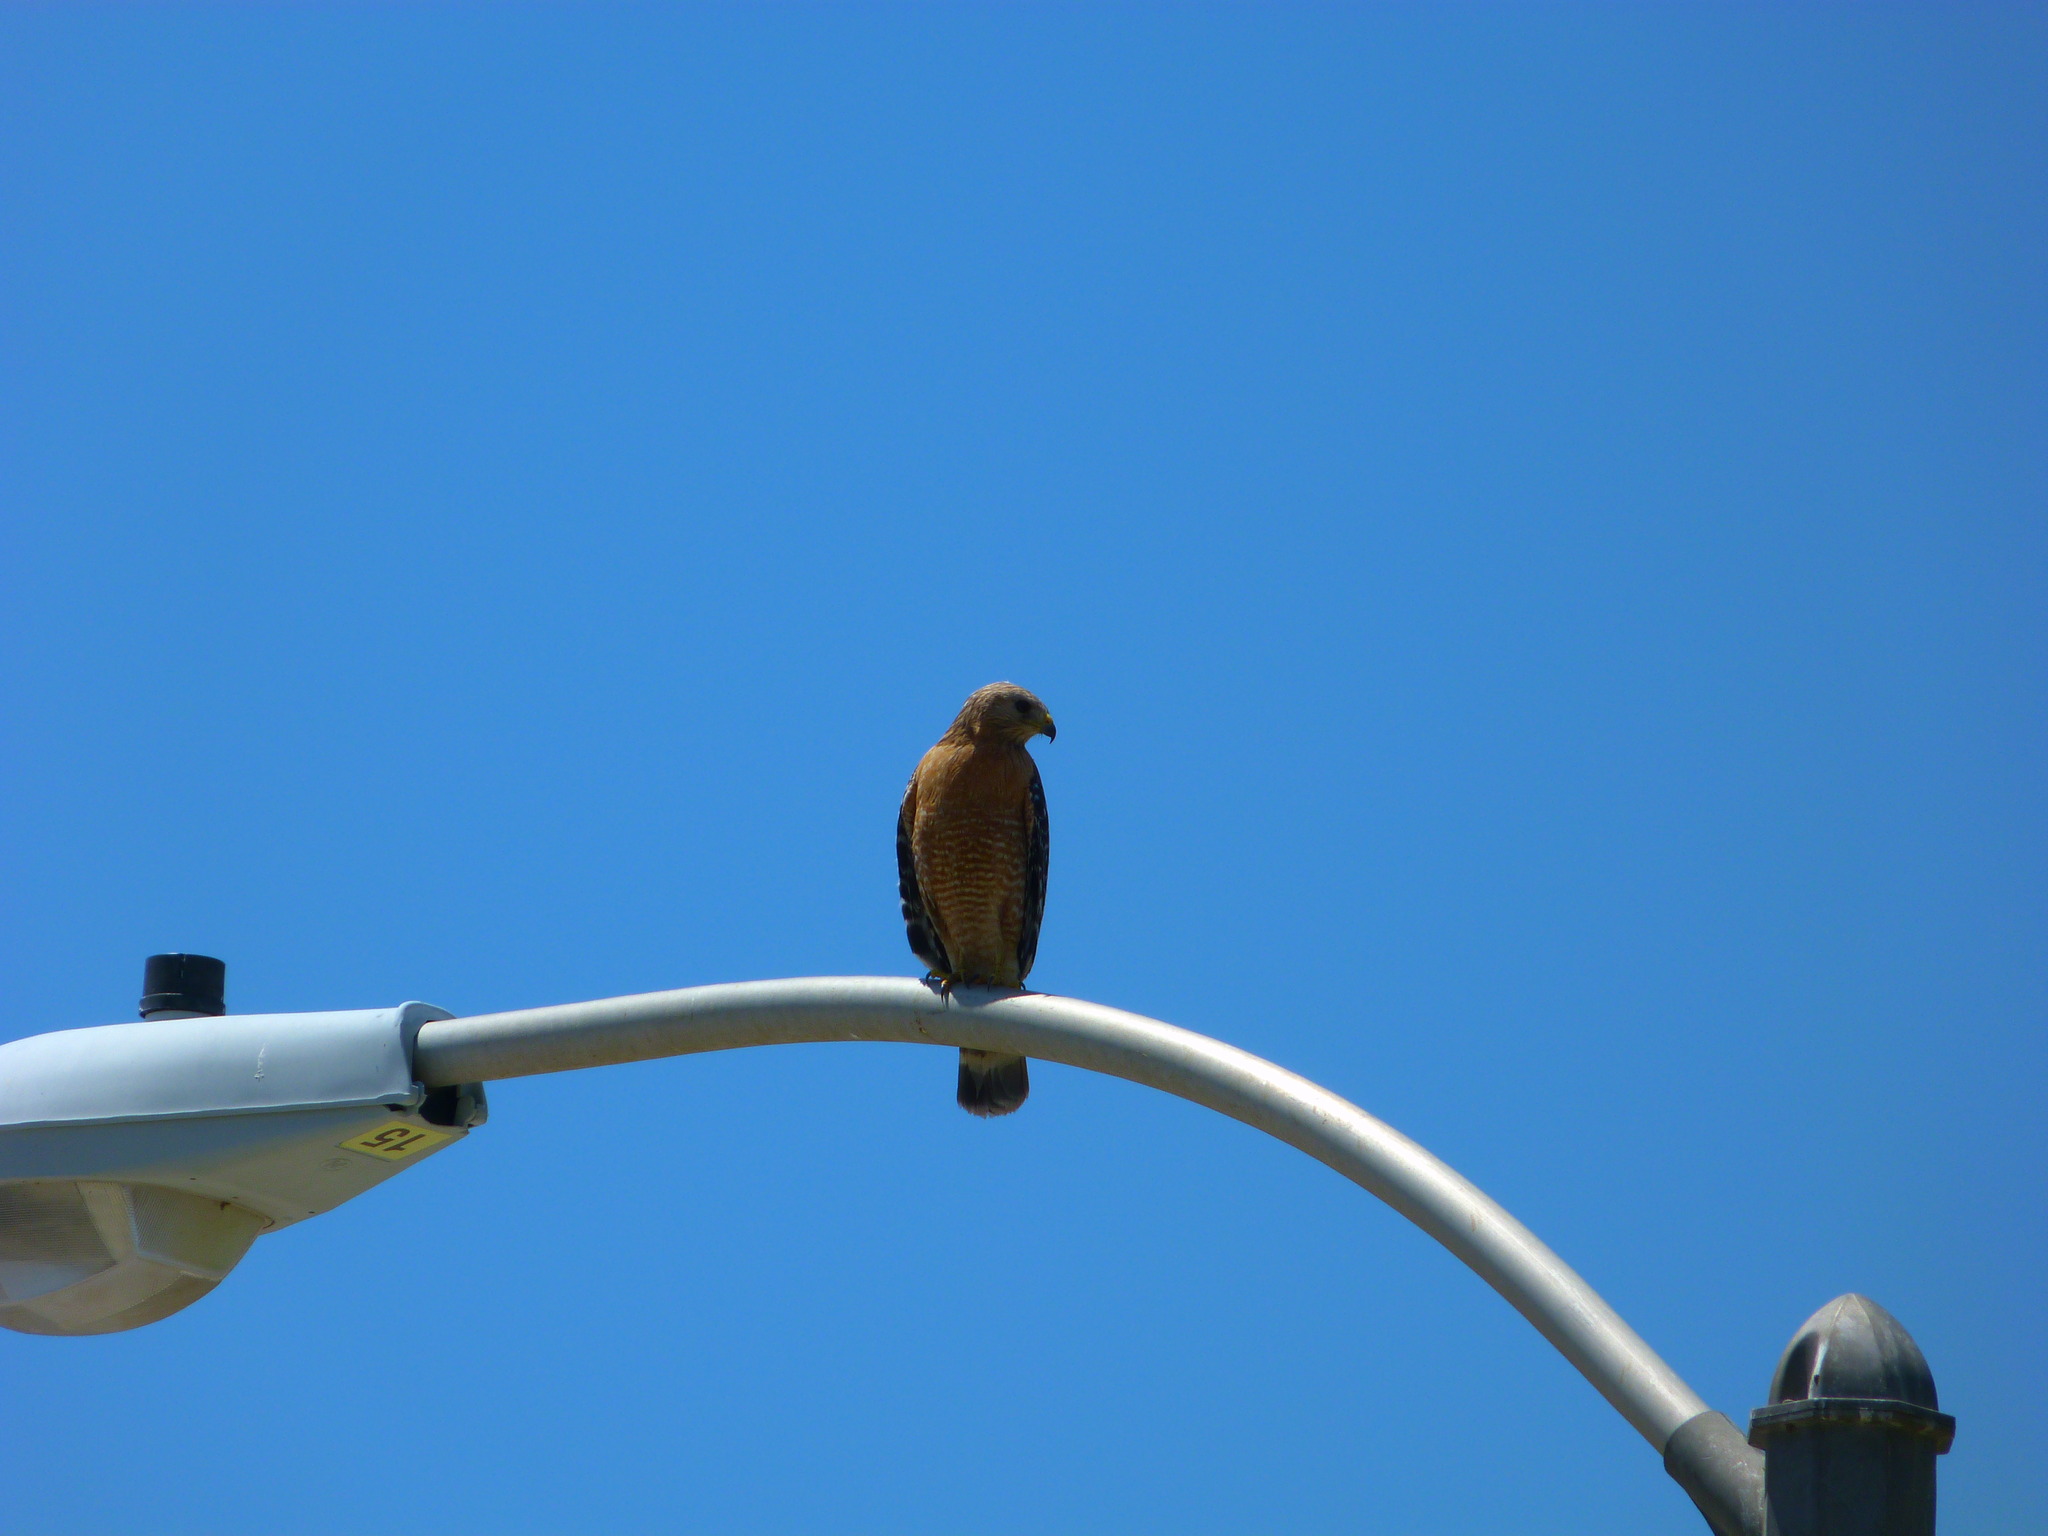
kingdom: Animalia
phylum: Chordata
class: Aves
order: Accipitriformes
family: Accipitridae
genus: Buteo
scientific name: Buteo lineatus
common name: Red-shouldered hawk
